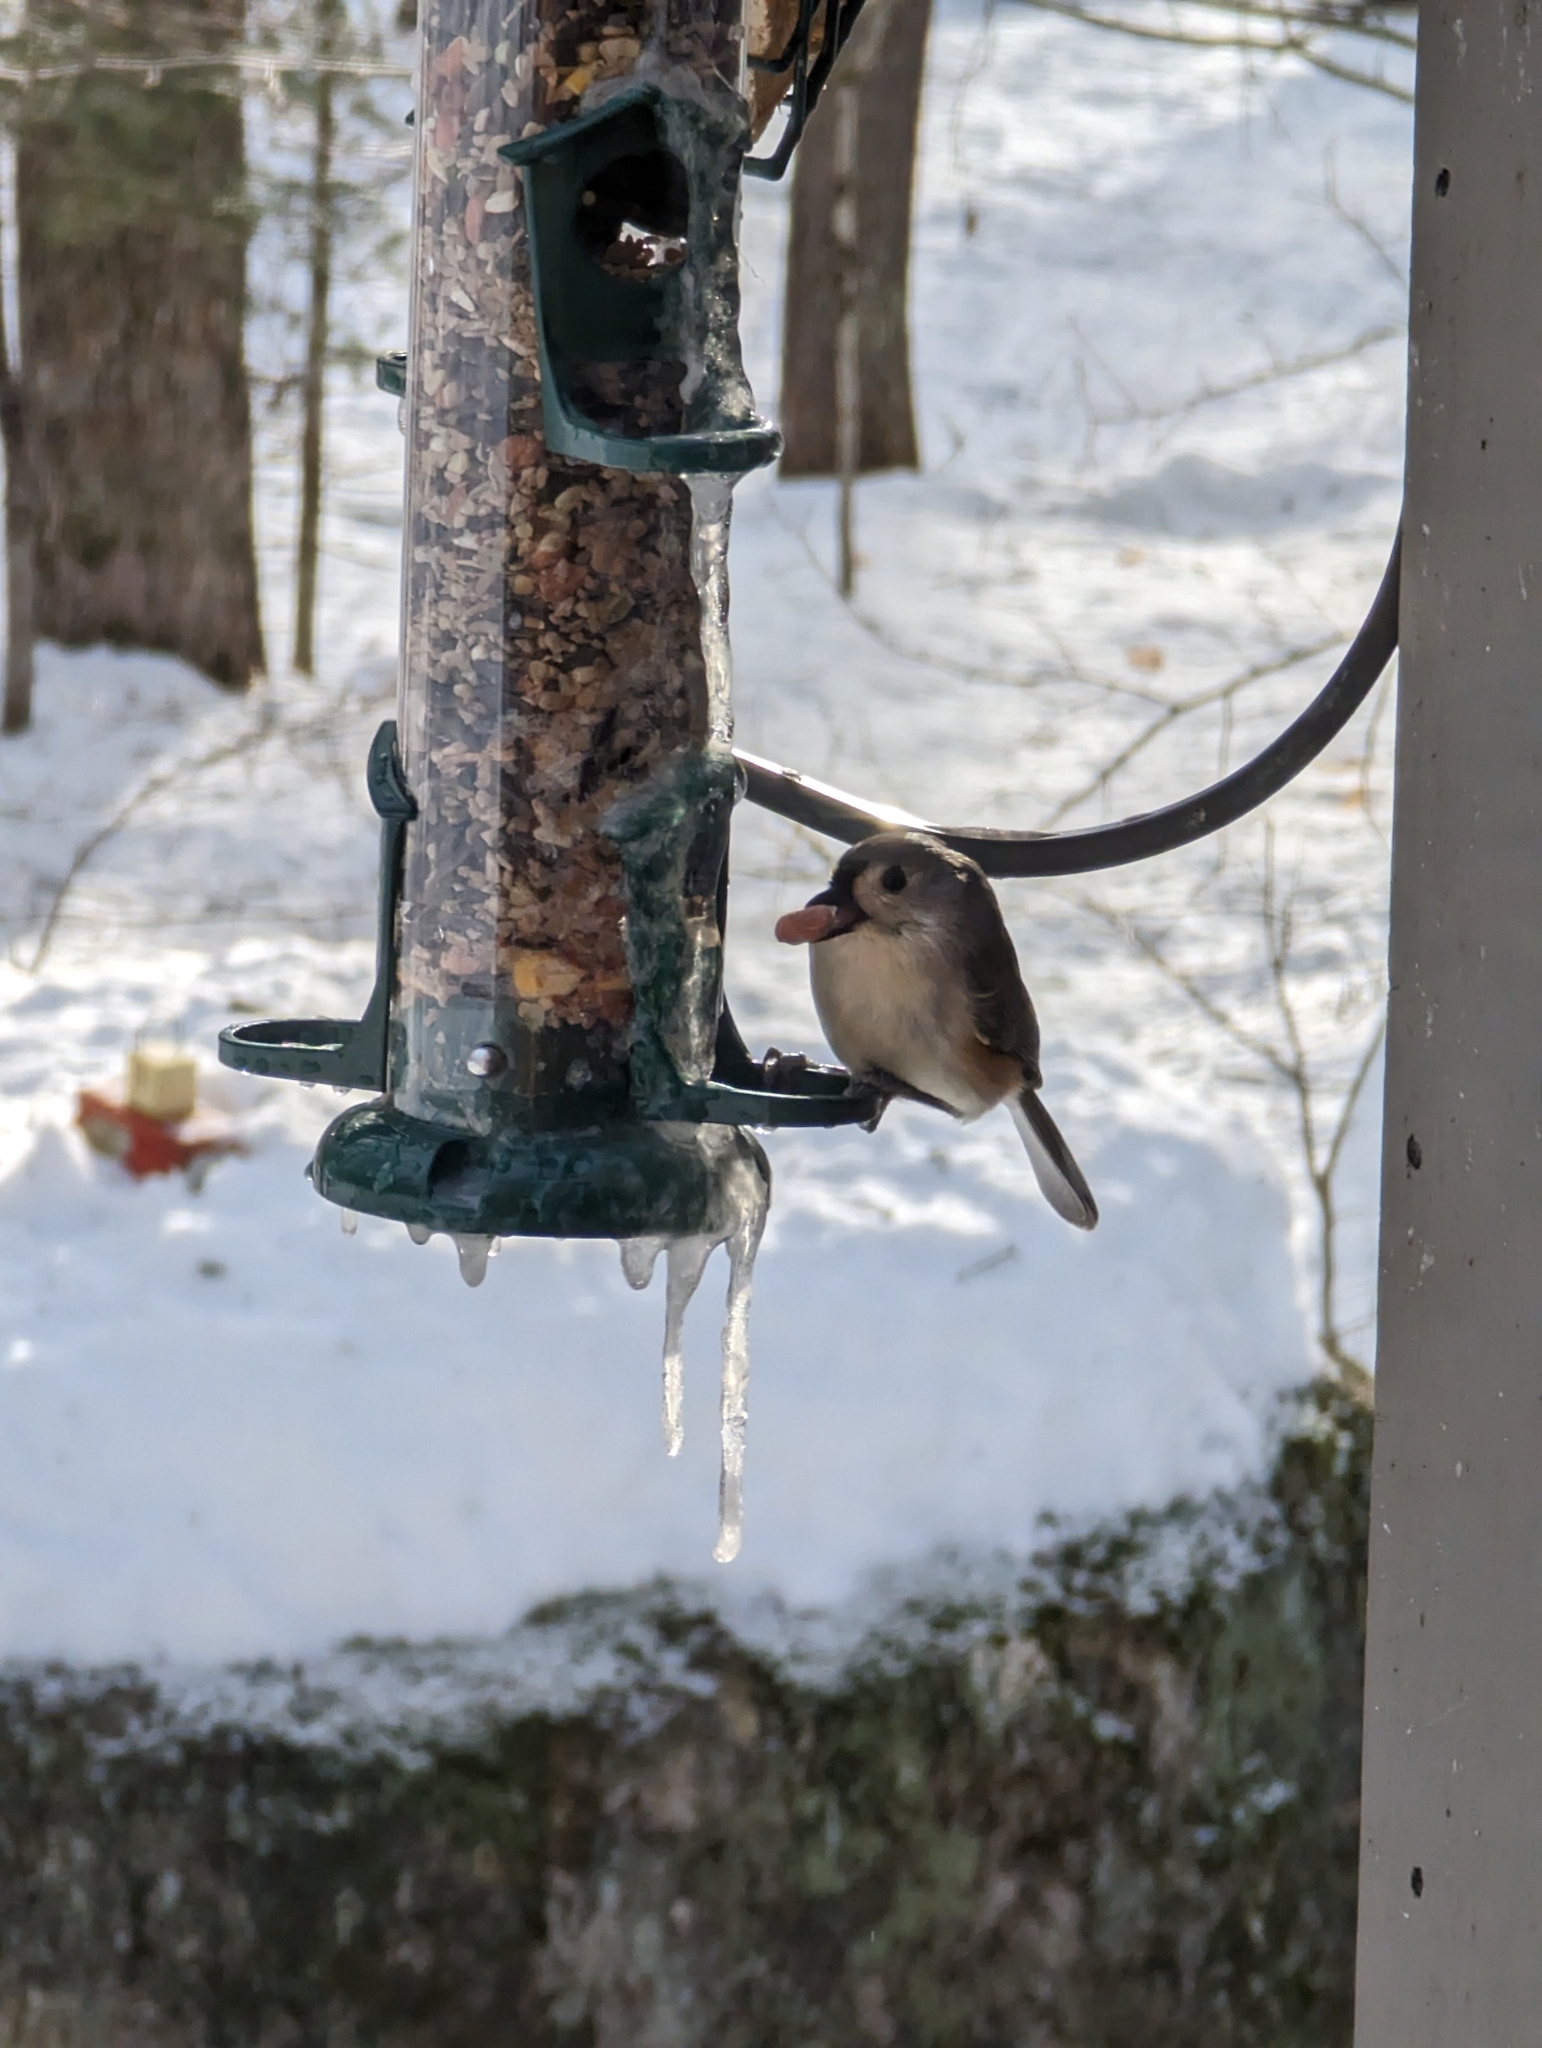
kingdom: Animalia
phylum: Chordata
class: Aves
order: Passeriformes
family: Paridae
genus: Baeolophus
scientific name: Baeolophus bicolor
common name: Tufted titmouse
